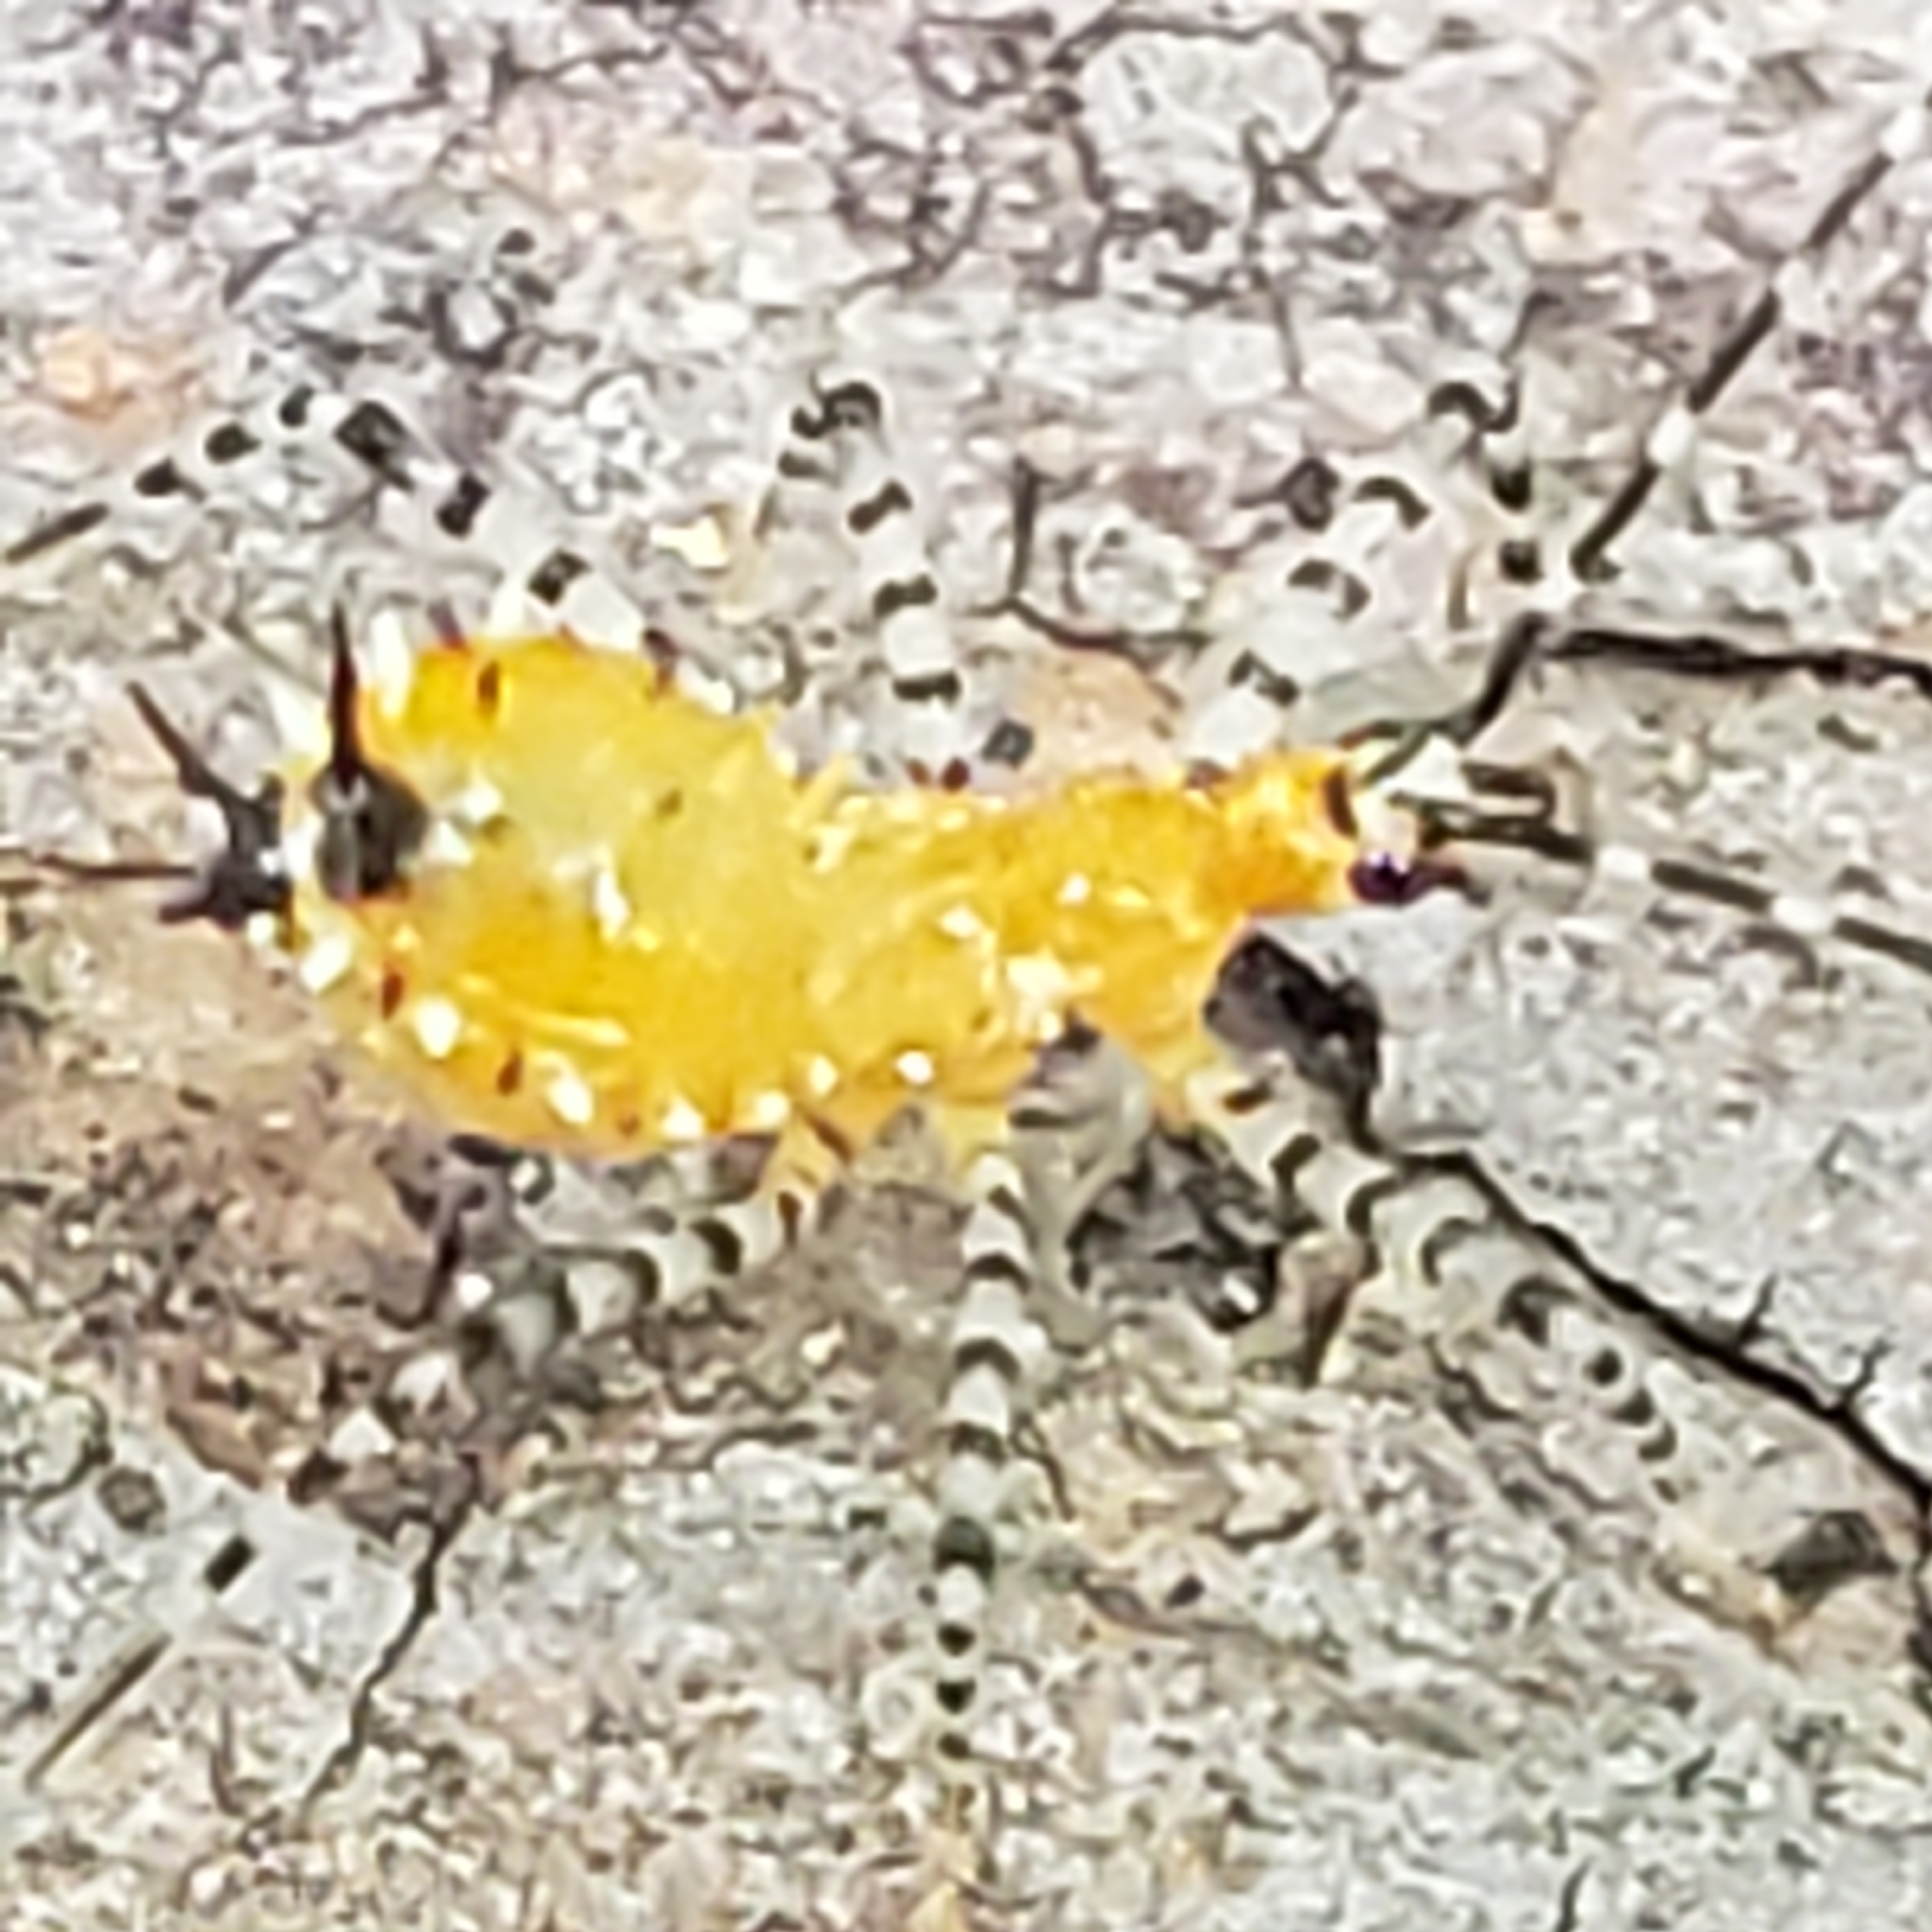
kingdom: Animalia
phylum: Arthropoda
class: Insecta
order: Hemiptera
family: Reduviidae
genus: Pselliopus
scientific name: Pselliopus cinctus
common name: Ringed assassin bug
